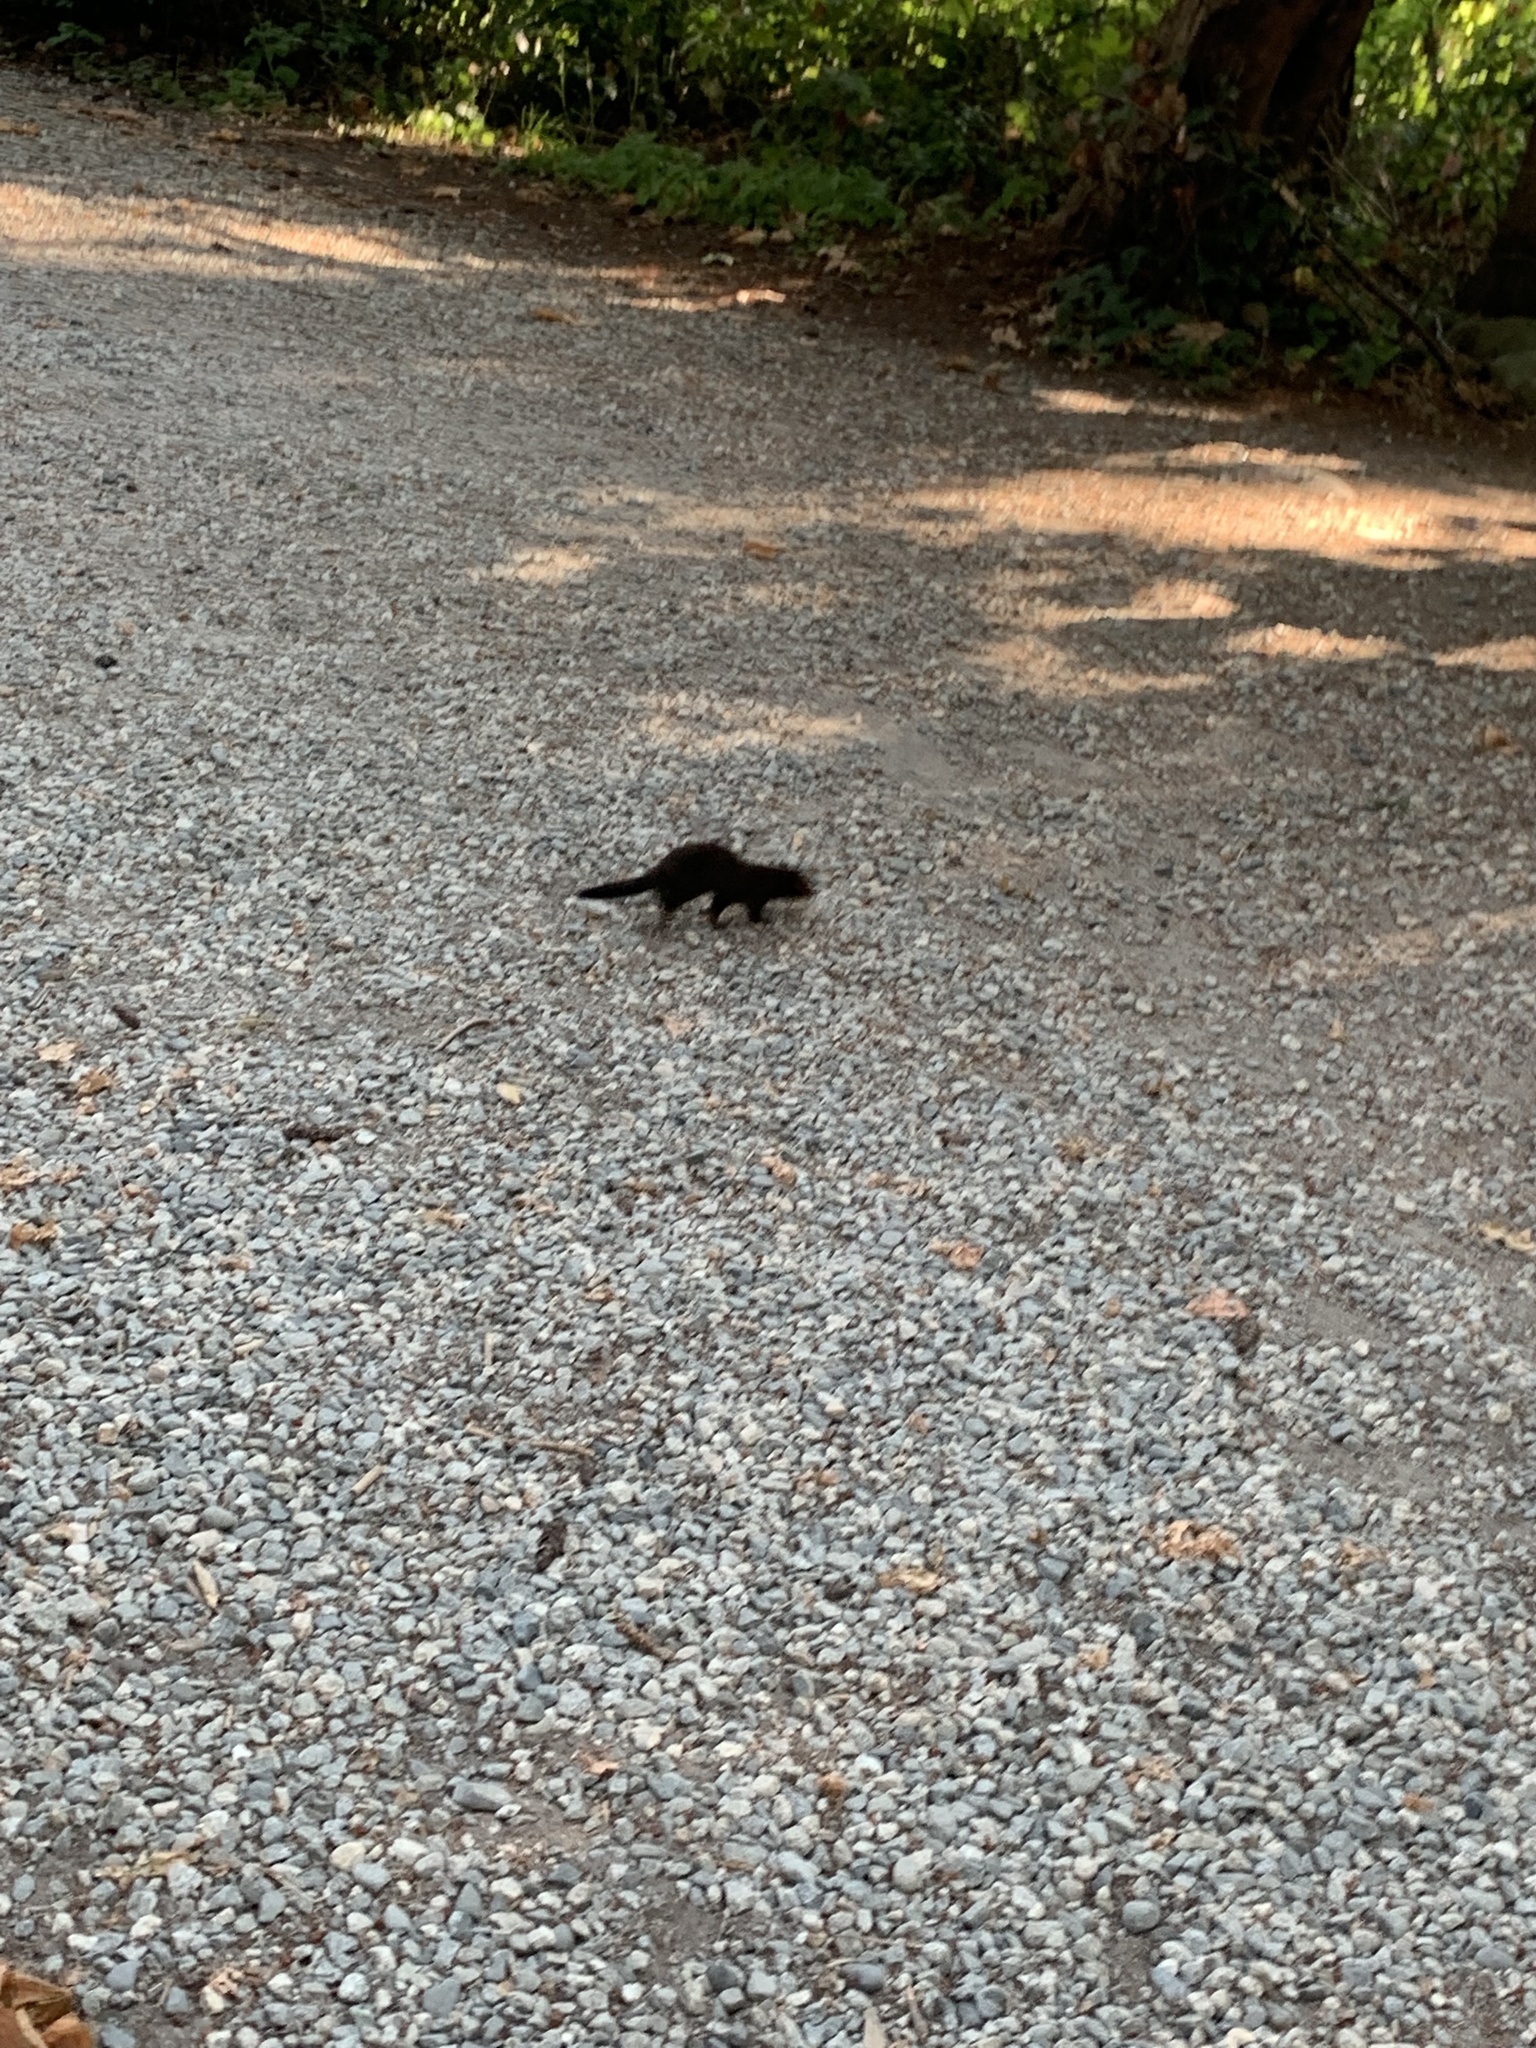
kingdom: Animalia
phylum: Chordata
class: Mammalia
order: Carnivora
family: Mustelidae
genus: Mustela
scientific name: Mustela
